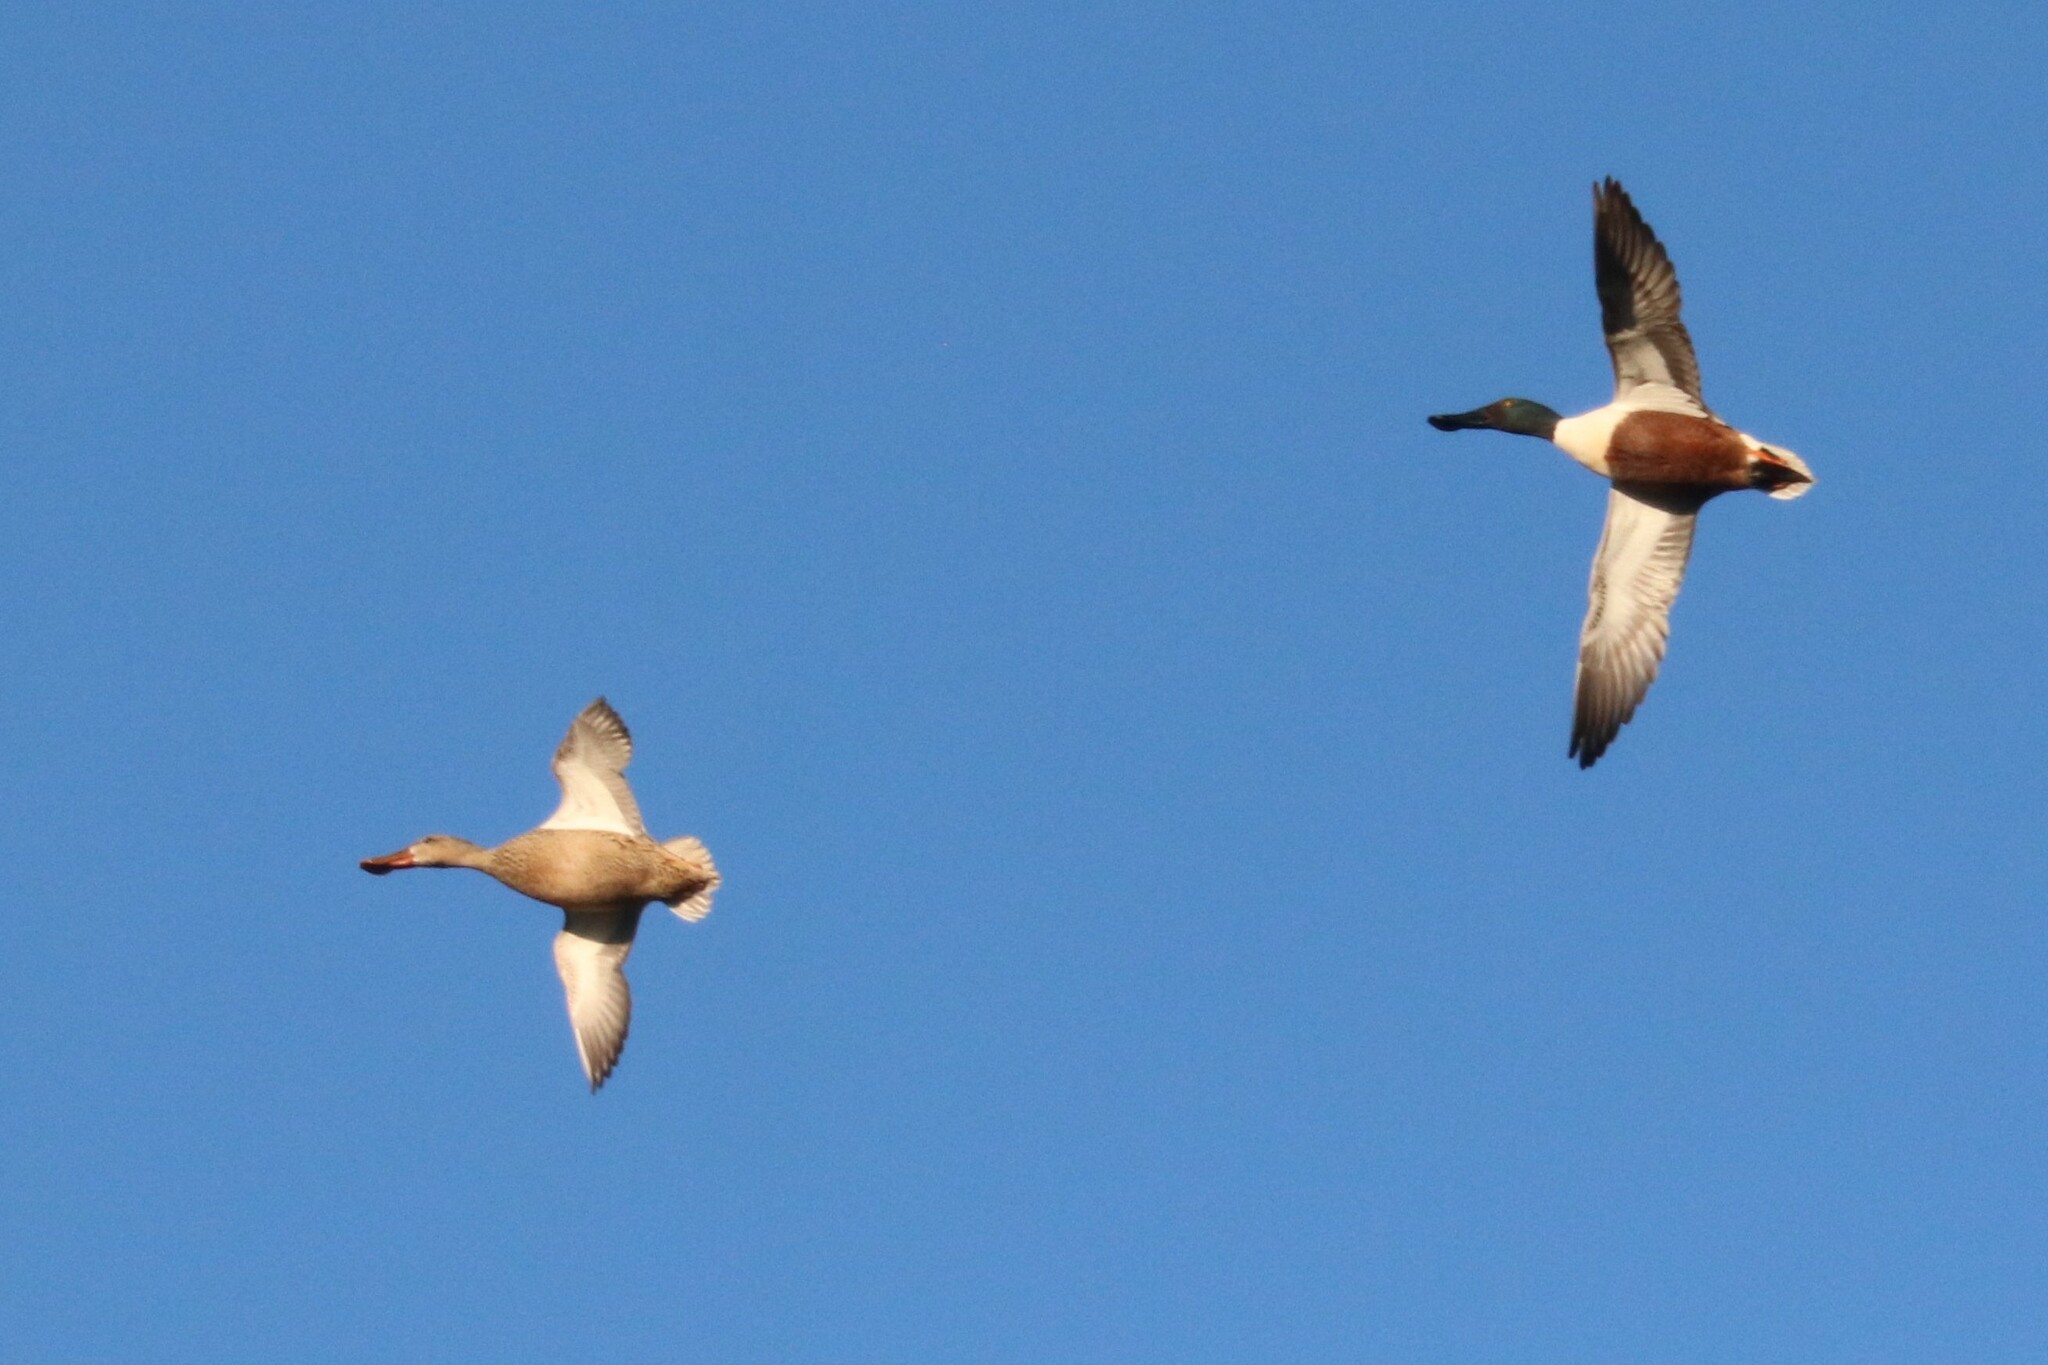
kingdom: Animalia
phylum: Chordata
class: Aves
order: Anseriformes
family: Anatidae
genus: Spatula
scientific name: Spatula clypeata
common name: Northern shoveler
